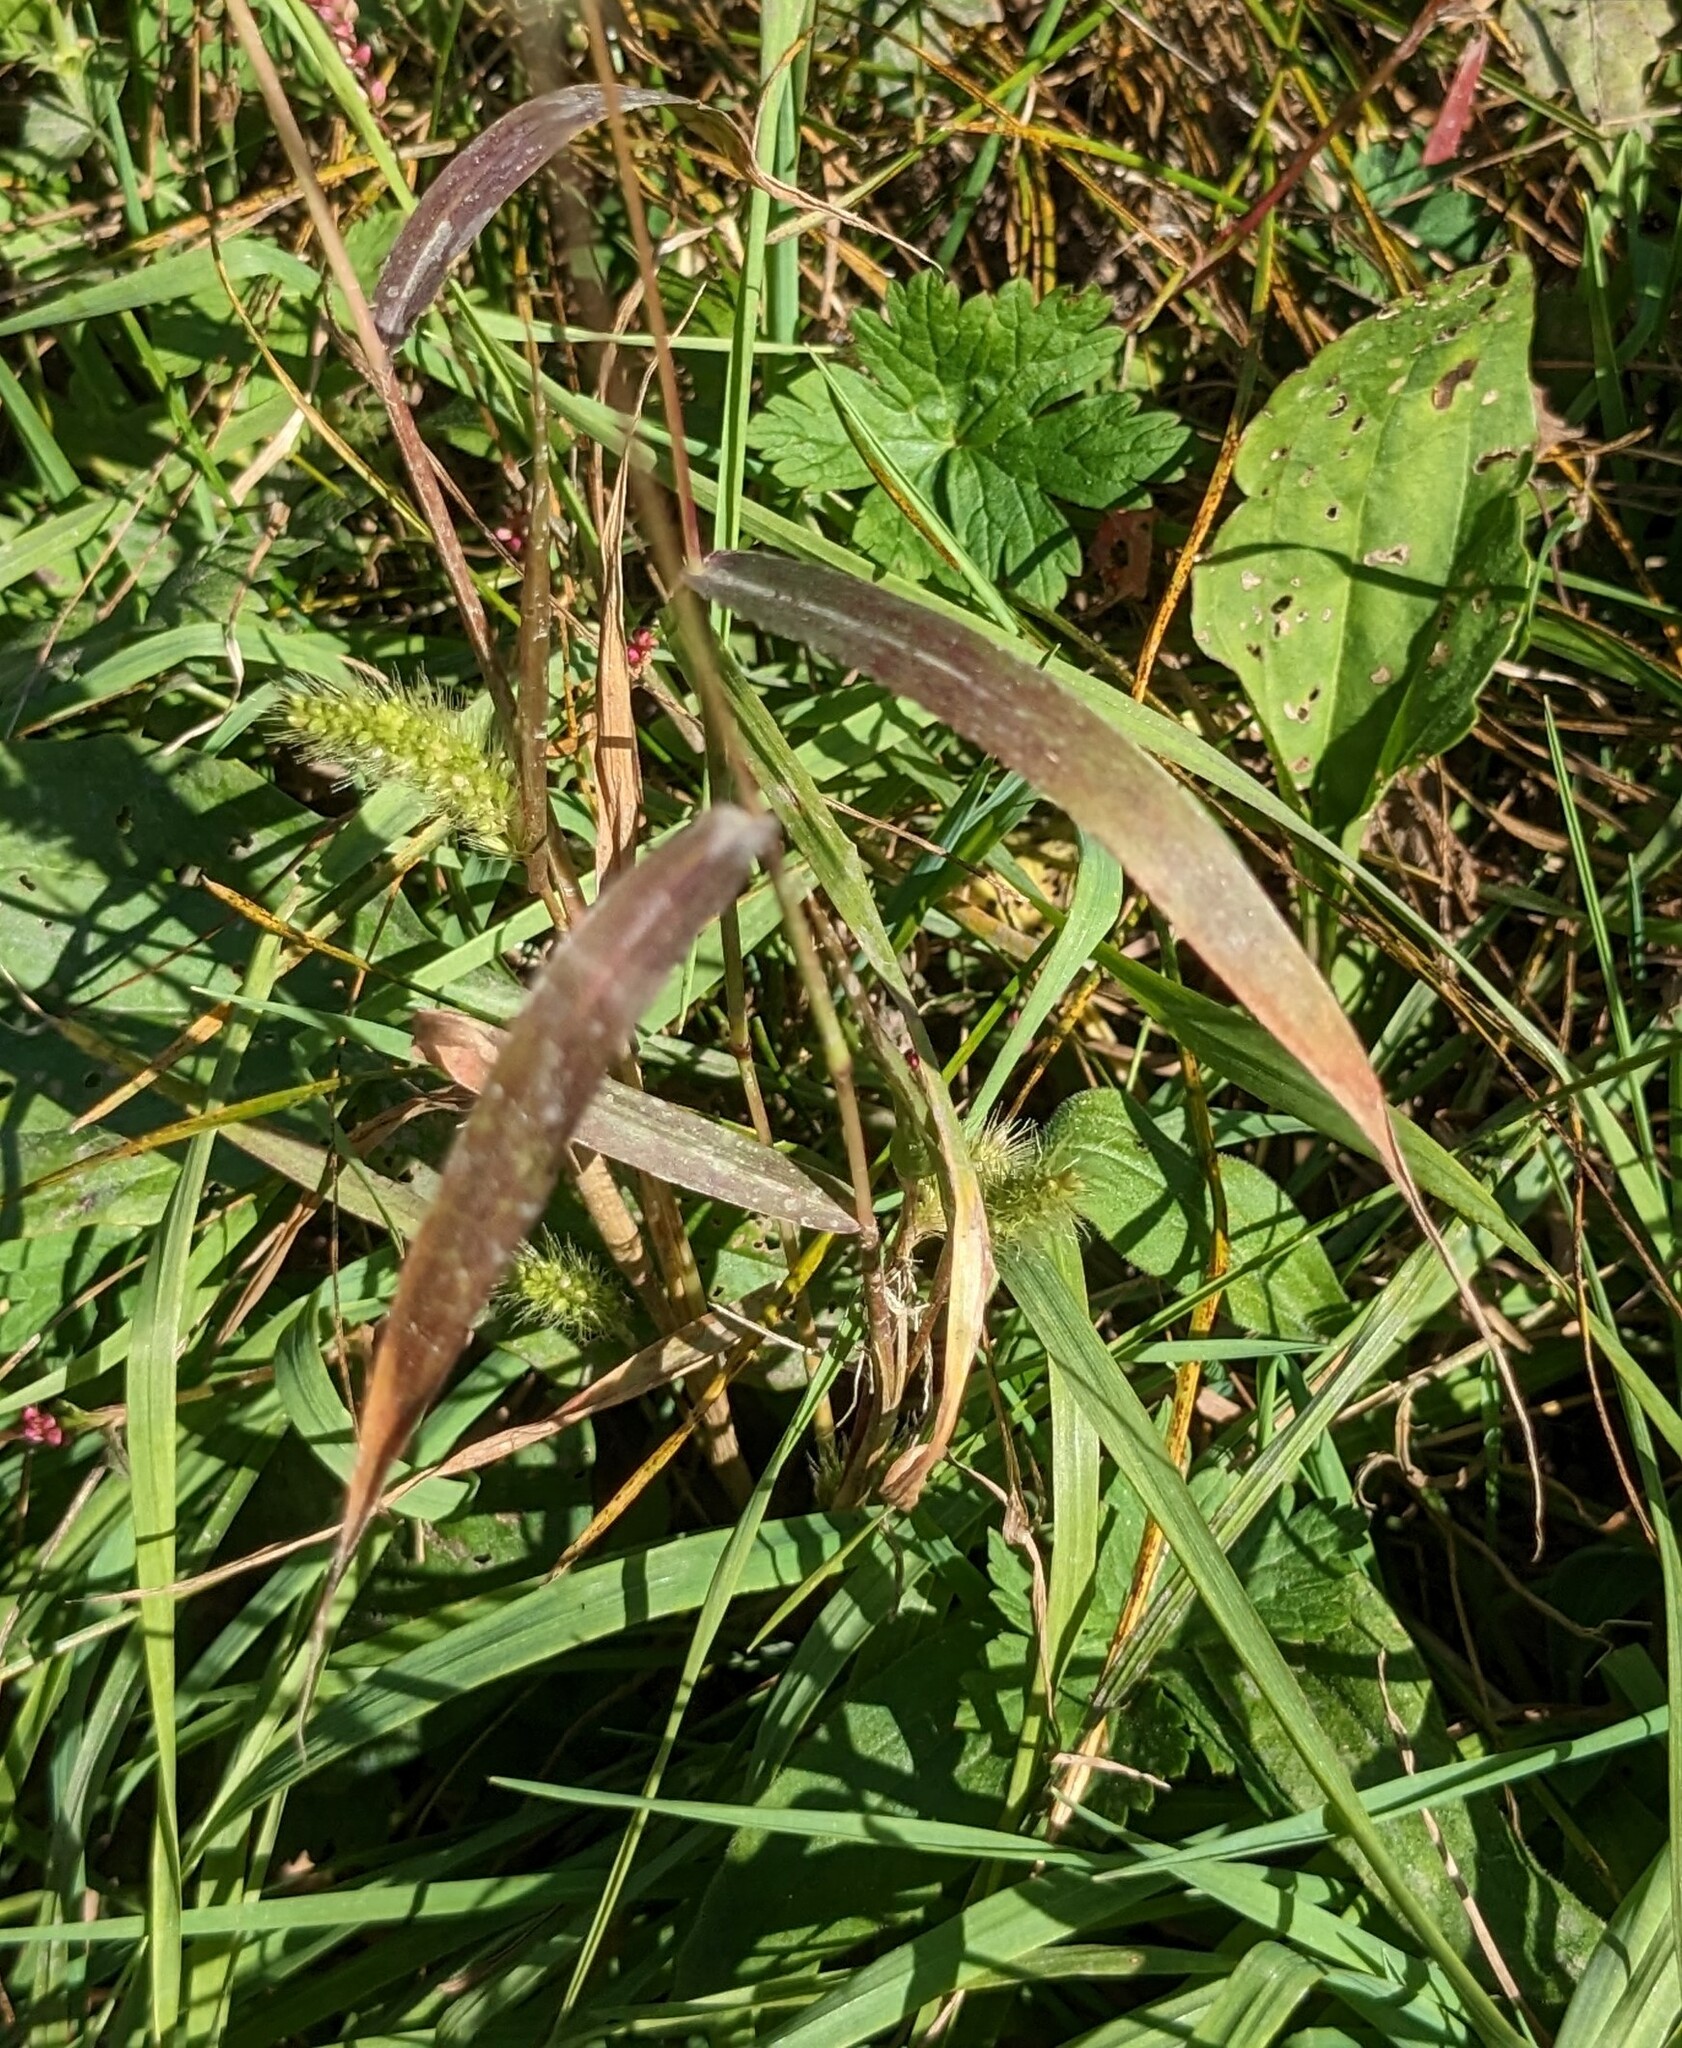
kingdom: Plantae
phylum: Tracheophyta
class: Liliopsida
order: Poales
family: Poaceae
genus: Setaria
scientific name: Setaria viridis
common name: Green bristlegrass
